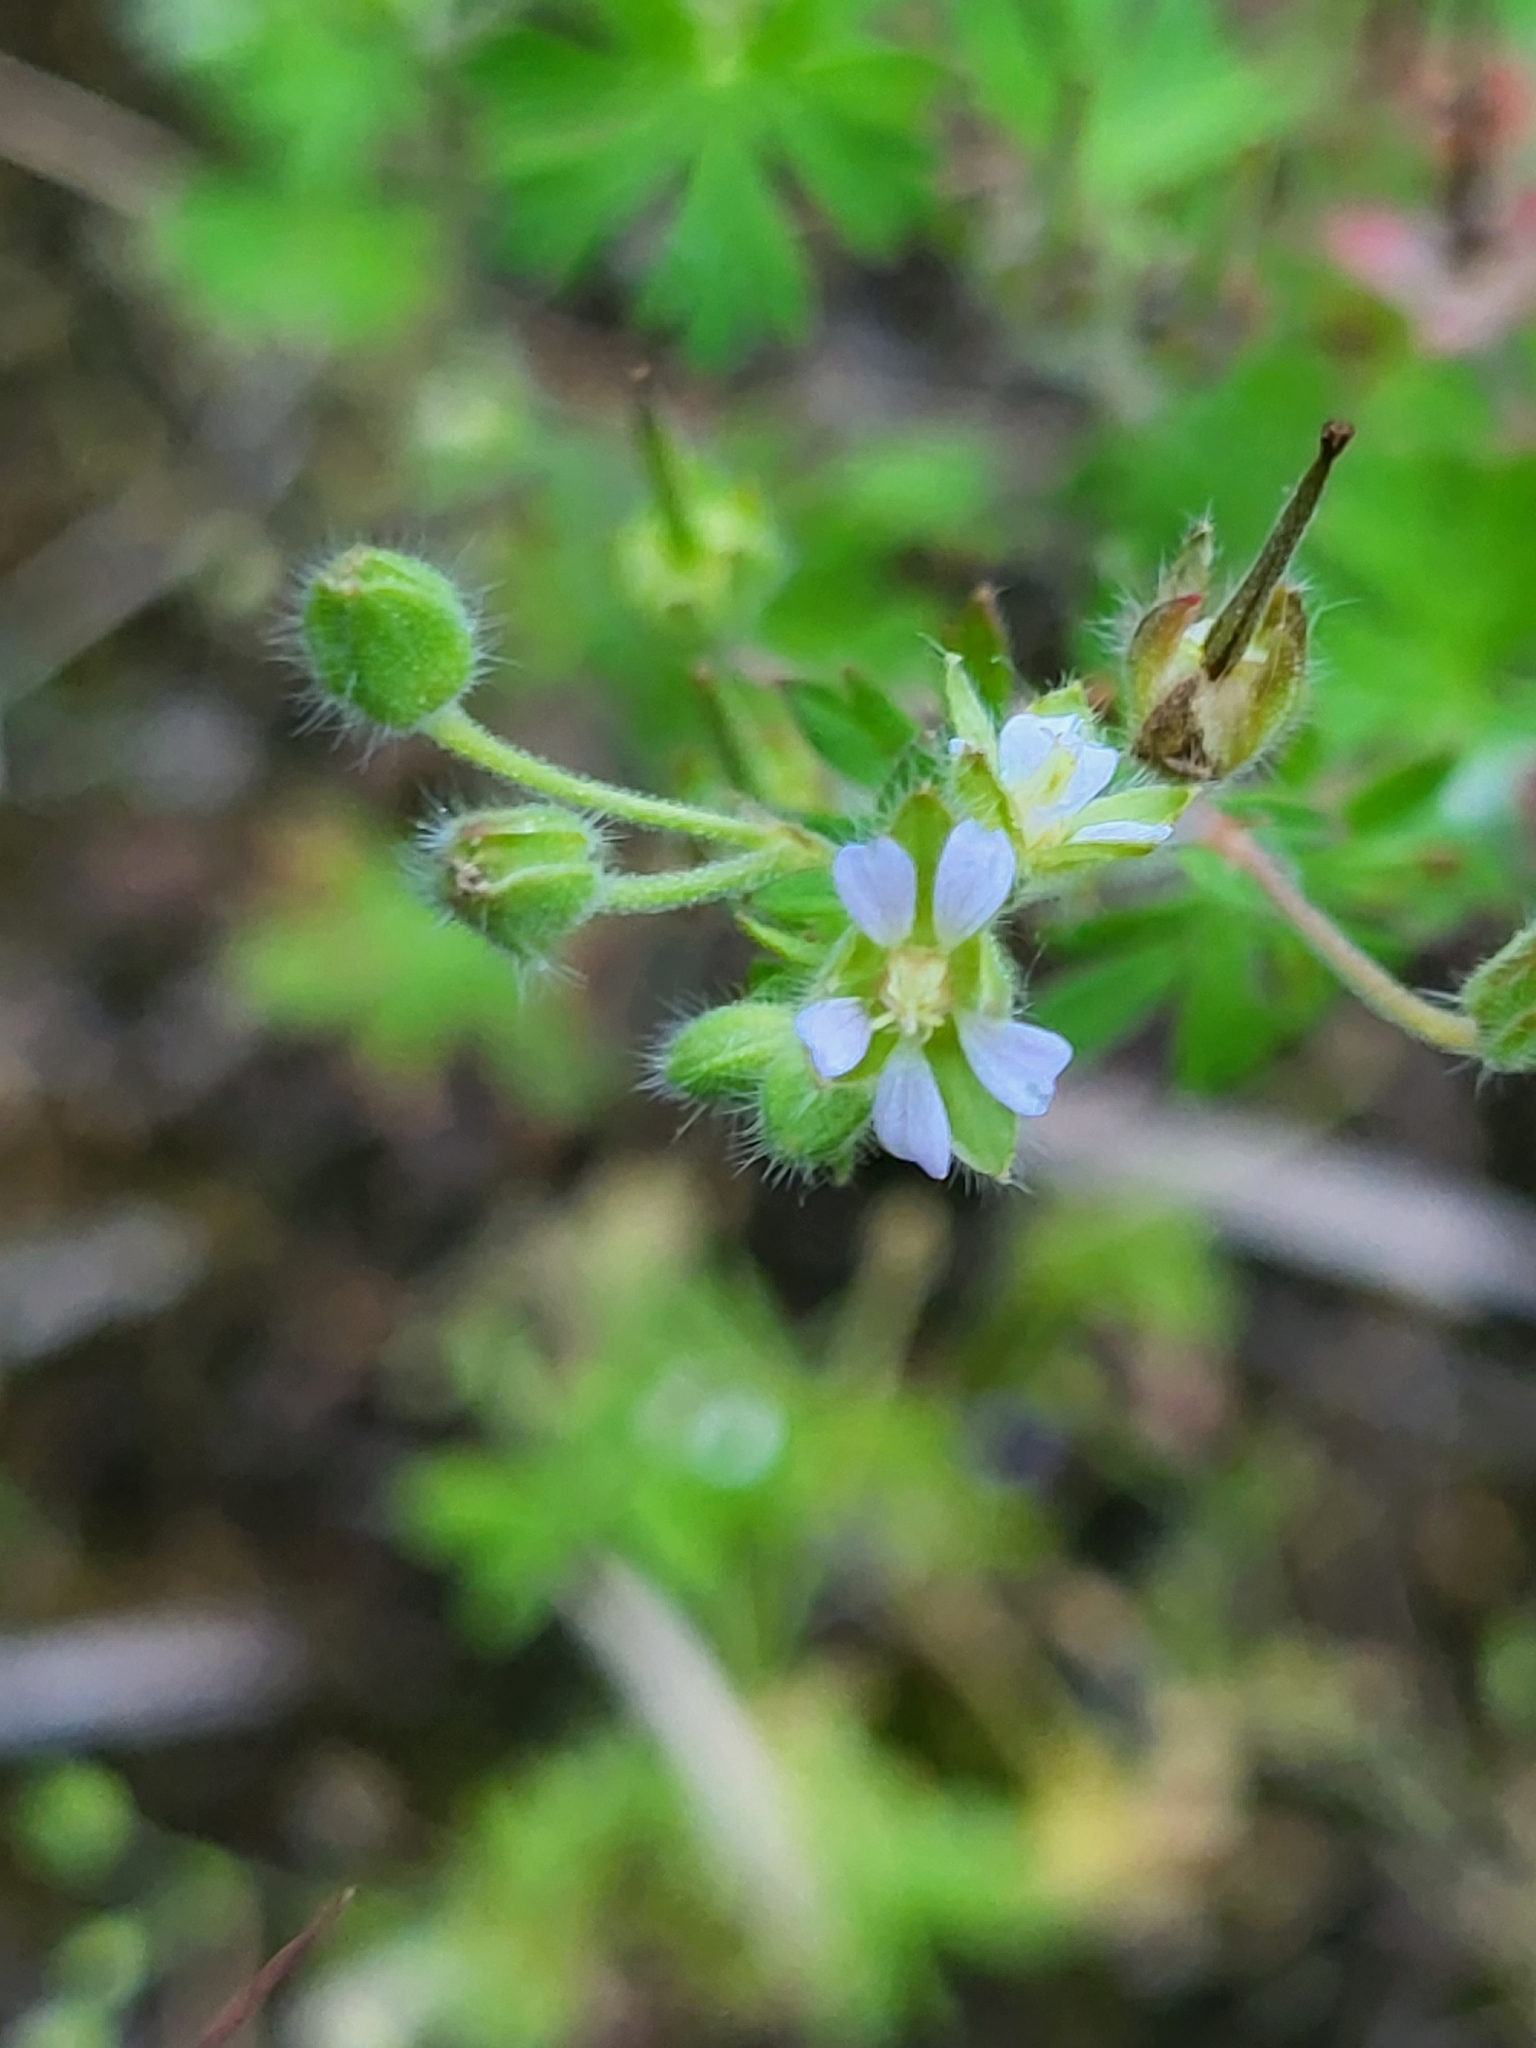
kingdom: Plantae
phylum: Tracheophyta
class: Magnoliopsida
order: Geraniales
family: Geraniaceae
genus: Geranium
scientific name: Geranium pusillum
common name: Small geranium
